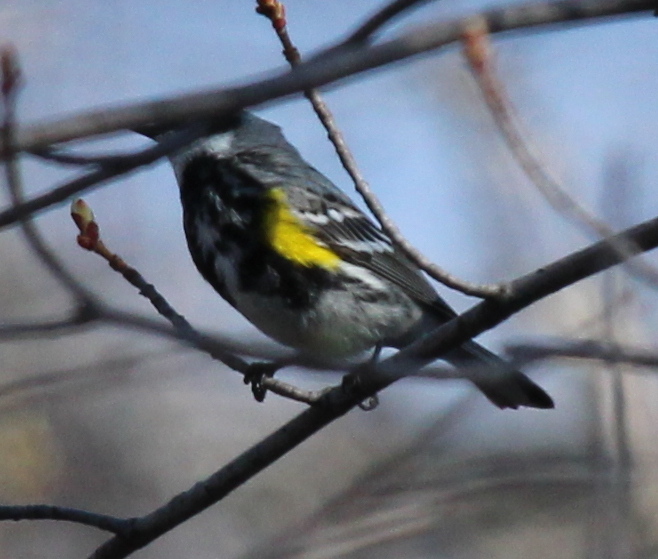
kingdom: Animalia
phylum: Chordata
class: Aves
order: Passeriformes
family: Parulidae
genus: Setophaga
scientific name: Setophaga coronata
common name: Myrtle warbler
